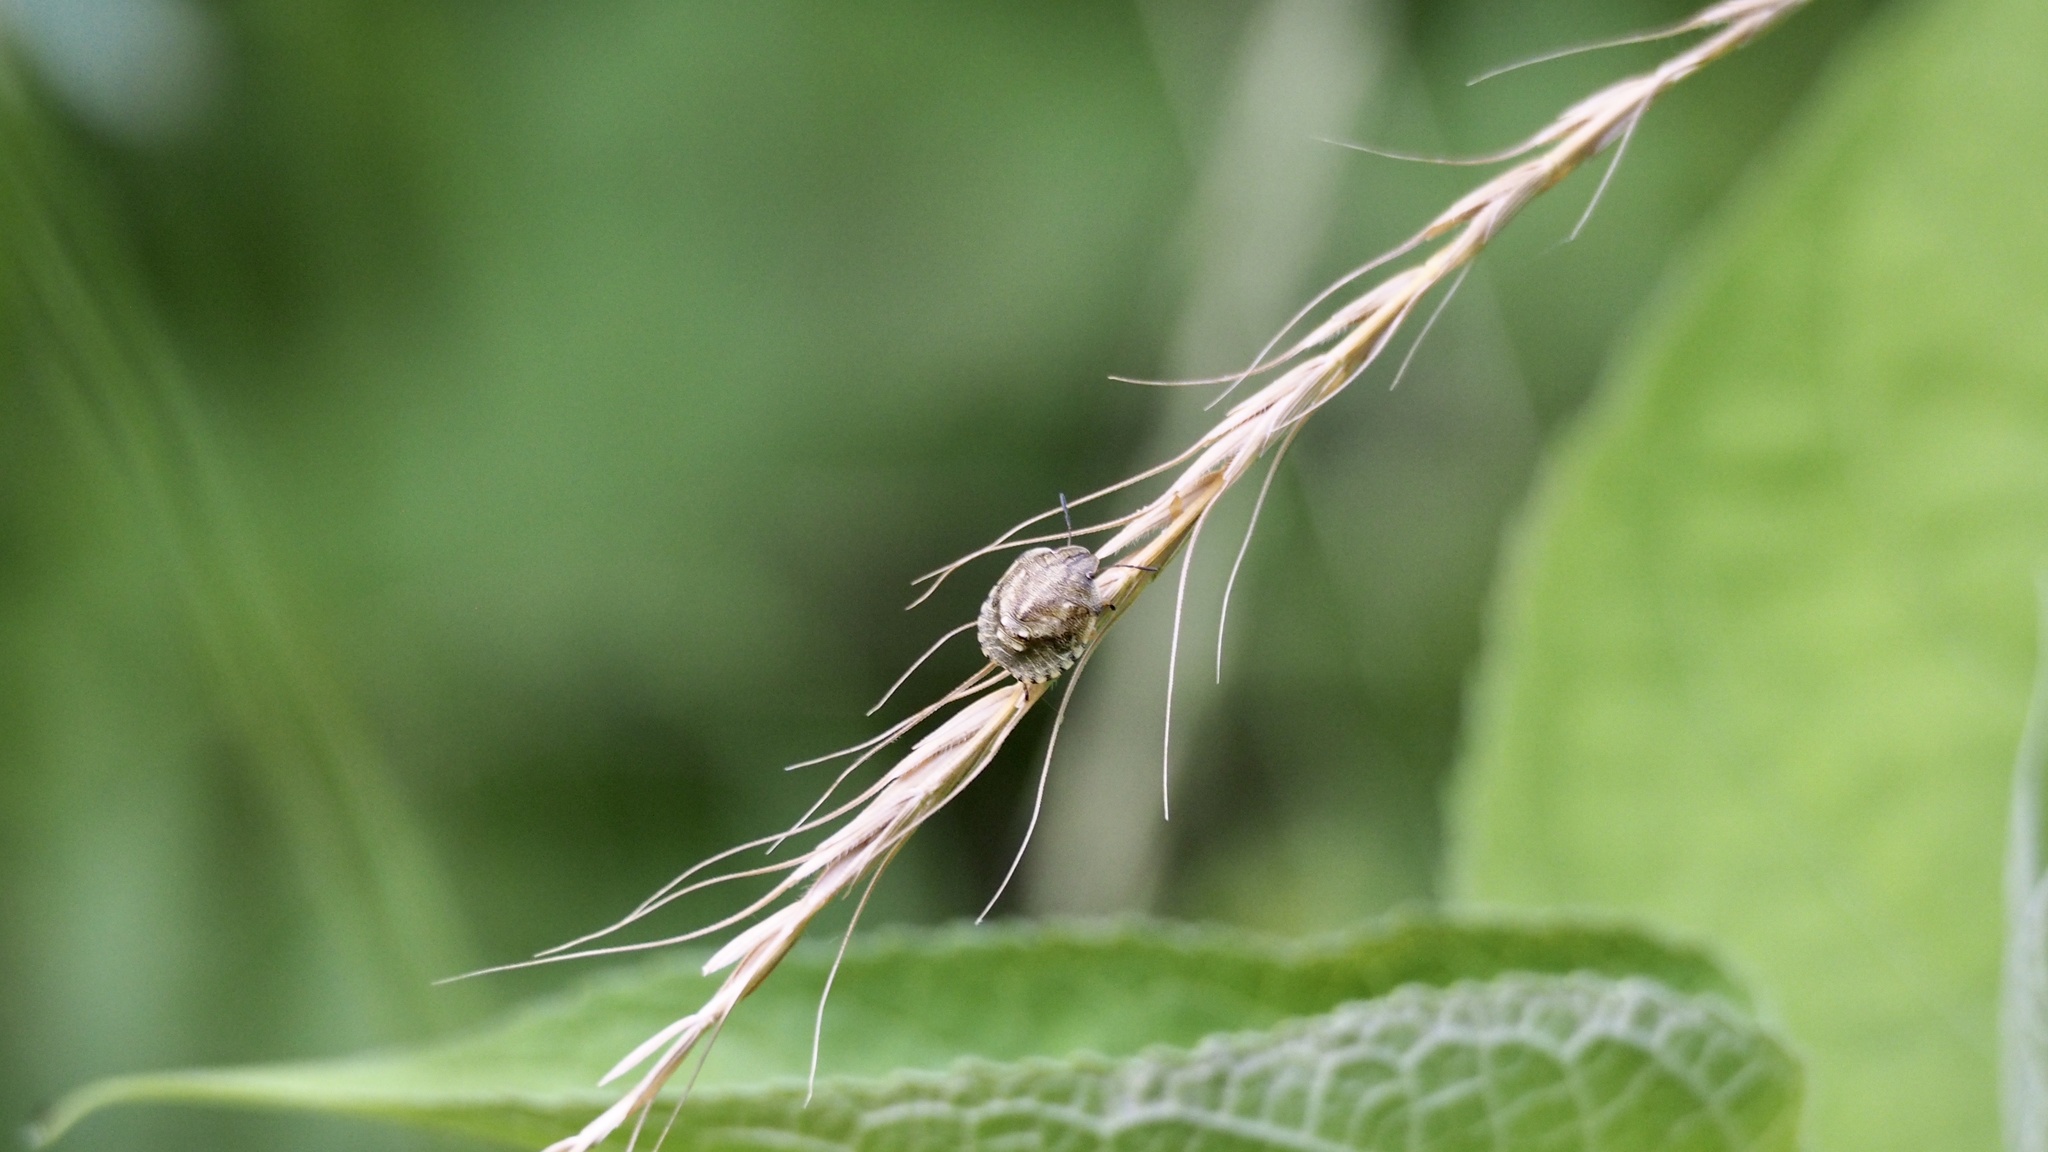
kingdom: Animalia
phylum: Arthropoda
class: Insecta
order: Hemiptera
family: Scutelleridae
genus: Eurygaster
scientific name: Eurygaster testudinaria
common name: Tortoise bug
